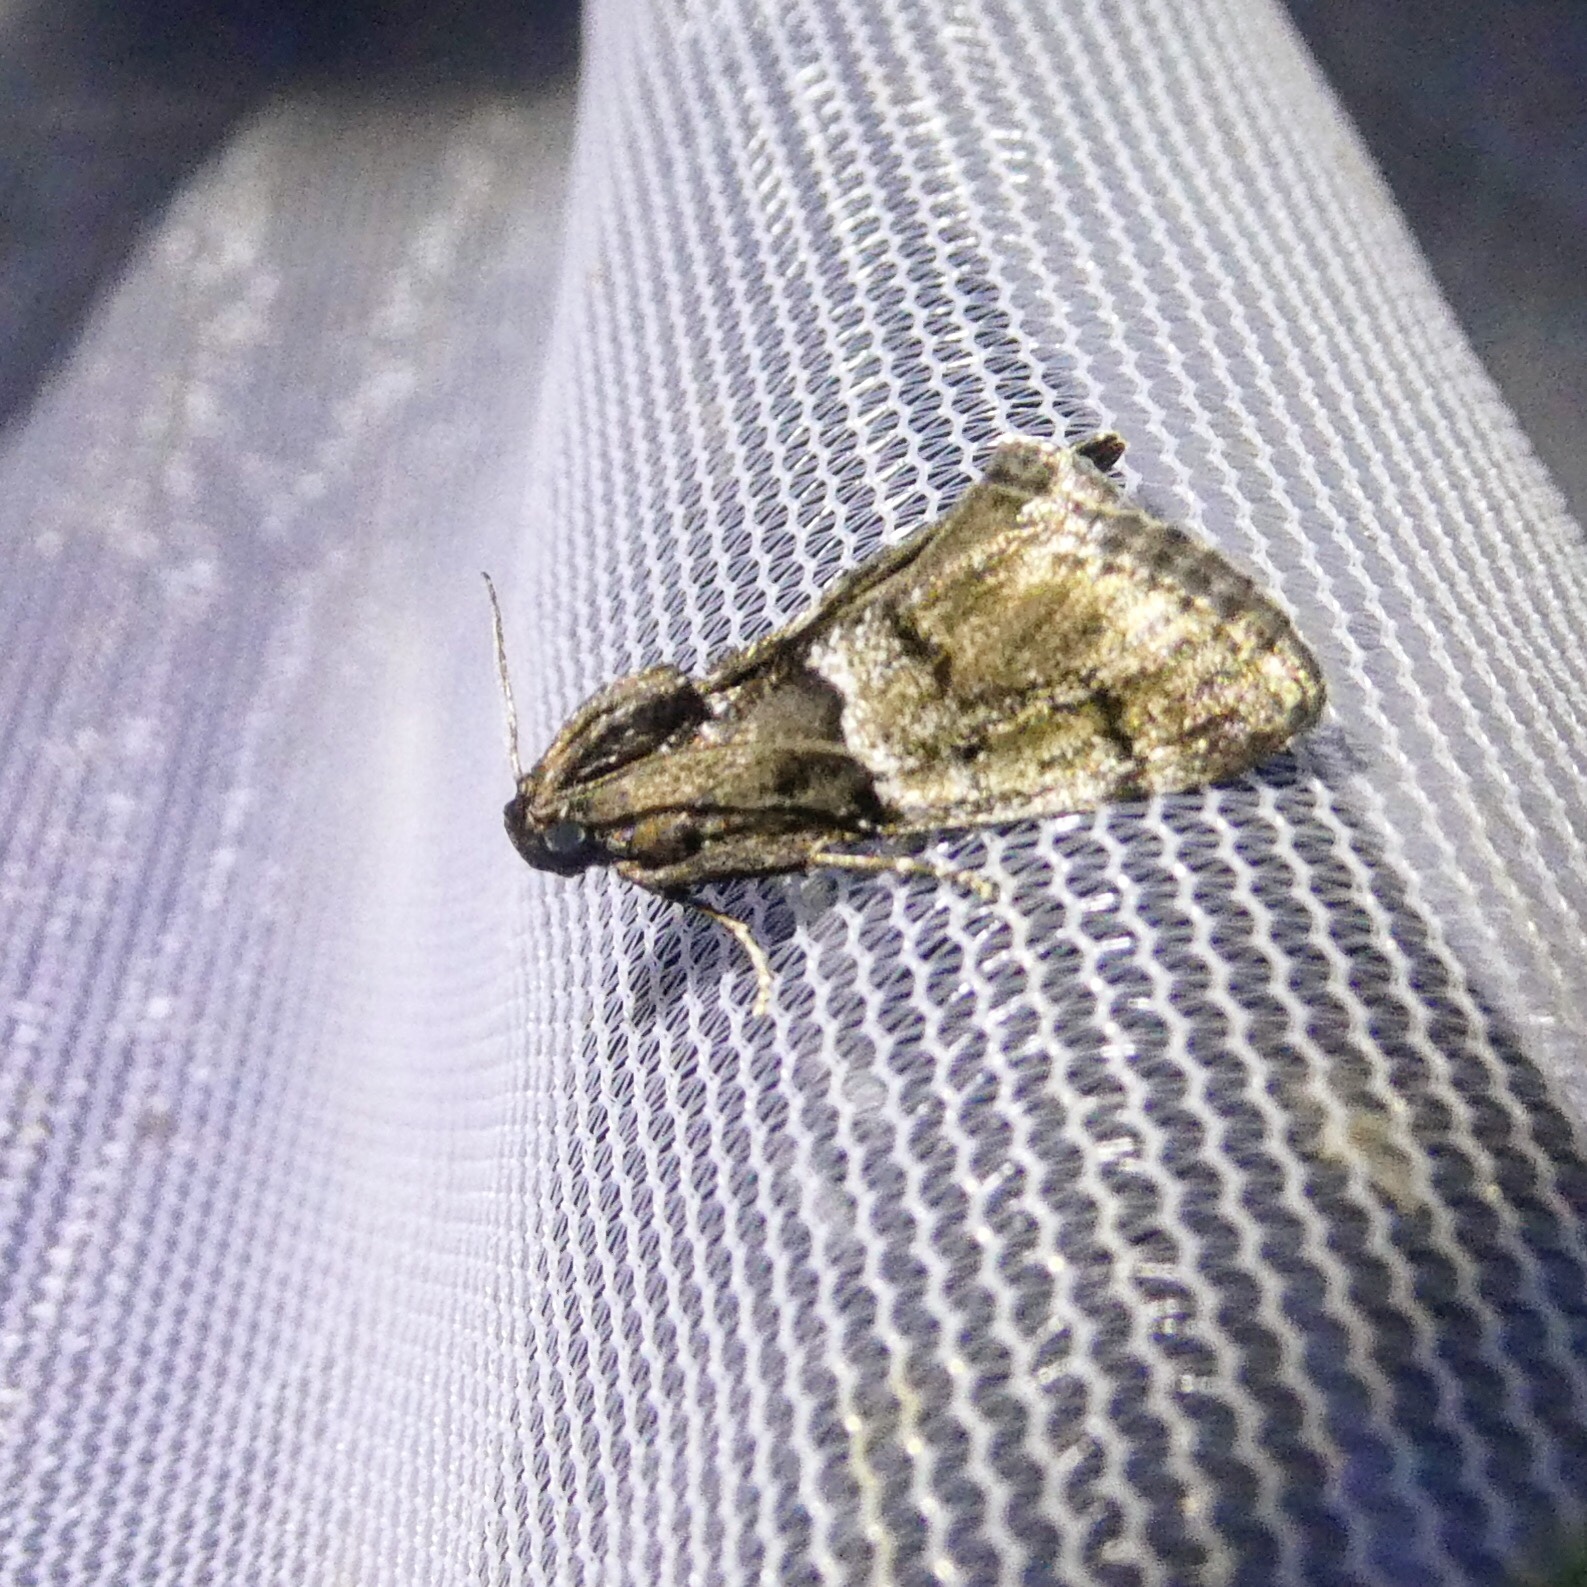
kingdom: Animalia
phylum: Arthropoda
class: Insecta
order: Lepidoptera
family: Pyralidae
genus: Macalla
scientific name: Macalla zelleri
